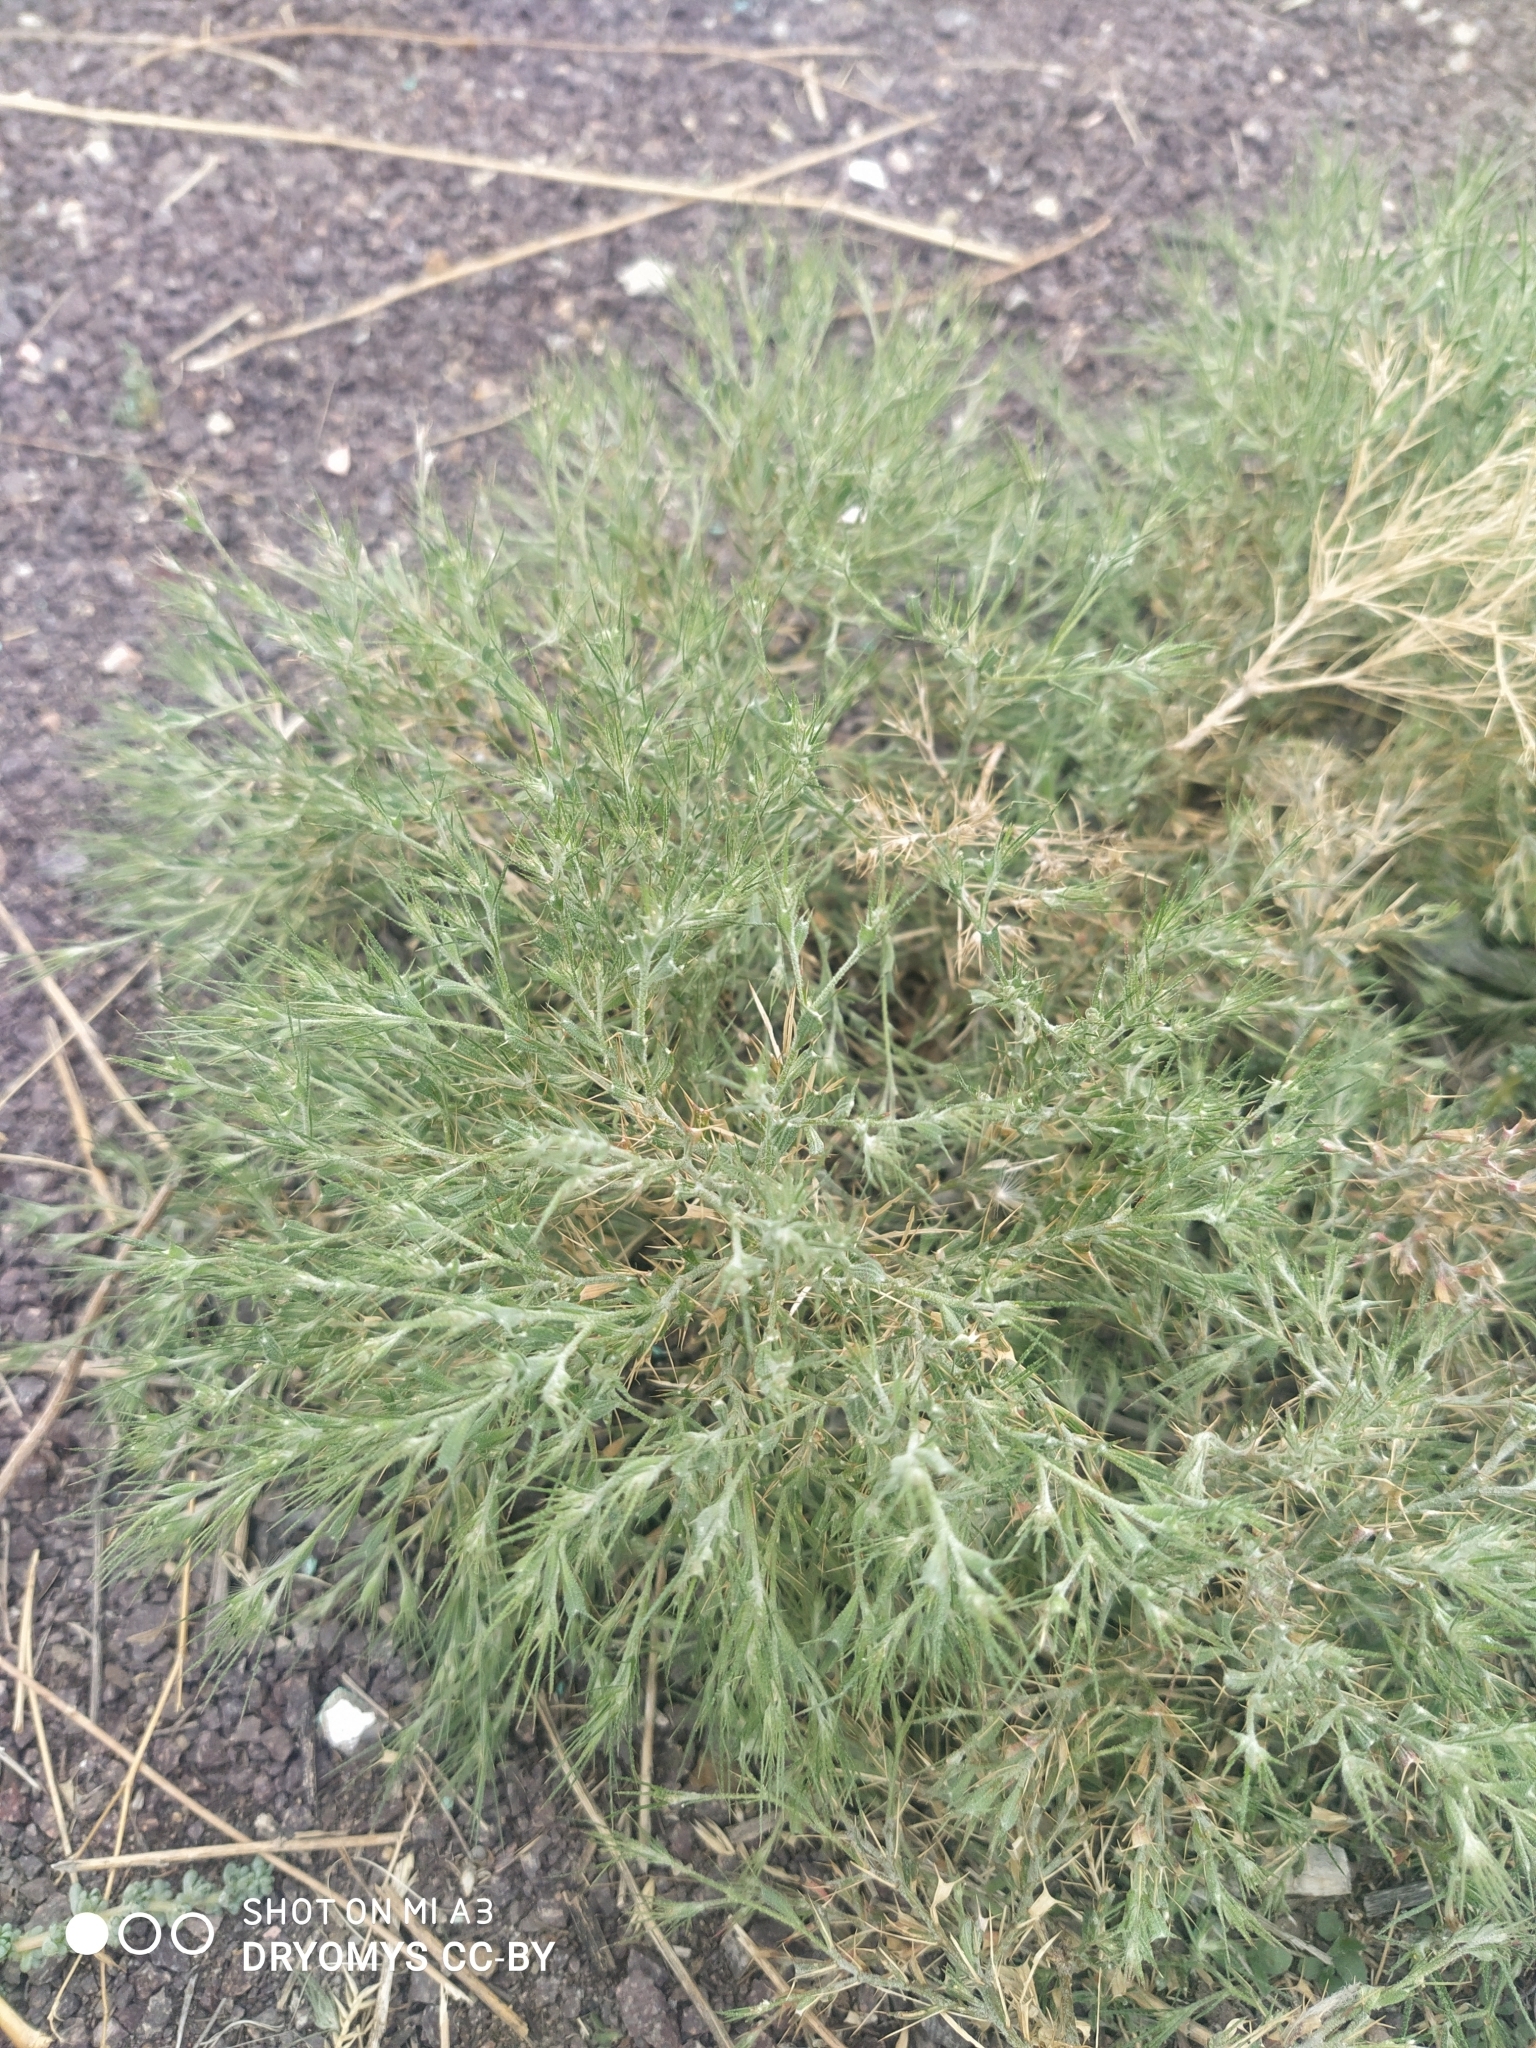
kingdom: Plantae
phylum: Tracheophyta
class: Magnoliopsida
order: Caryophyllales
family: Amaranthaceae
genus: Ceratocarpus
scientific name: Ceratocarpus arenarius
